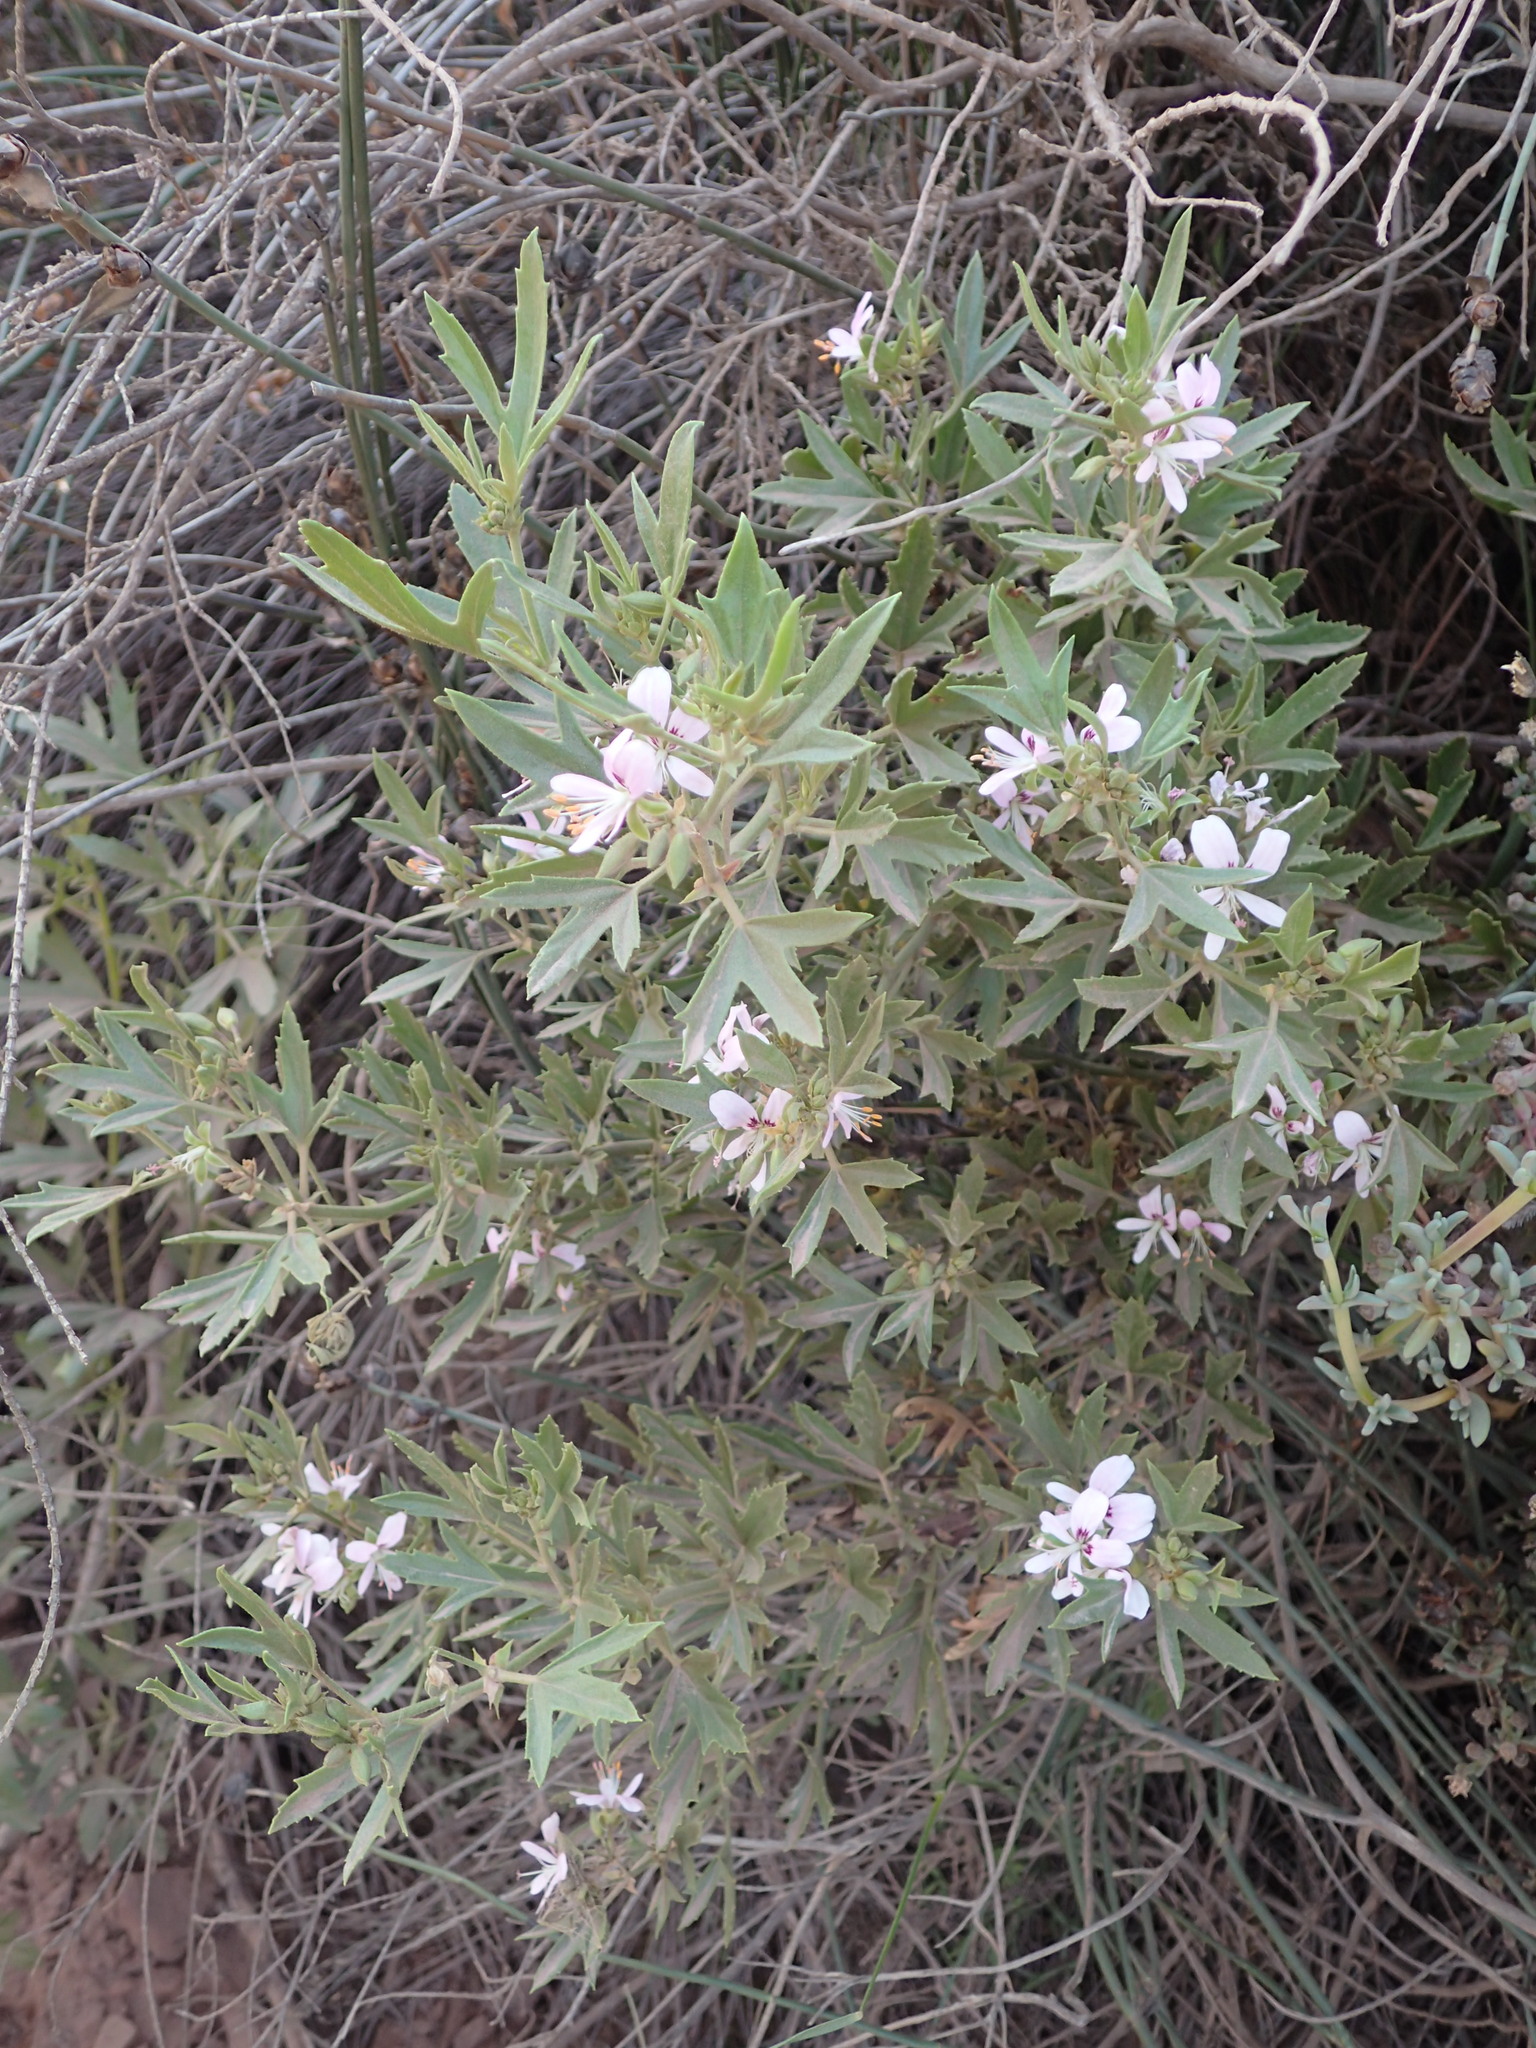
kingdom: Plantae
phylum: Tracheophyta
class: Magnoliopsida
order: Geraniales
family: Geraniaceae
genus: Pelargonium
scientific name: Pelargonium scabrum
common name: Apricot geranium
